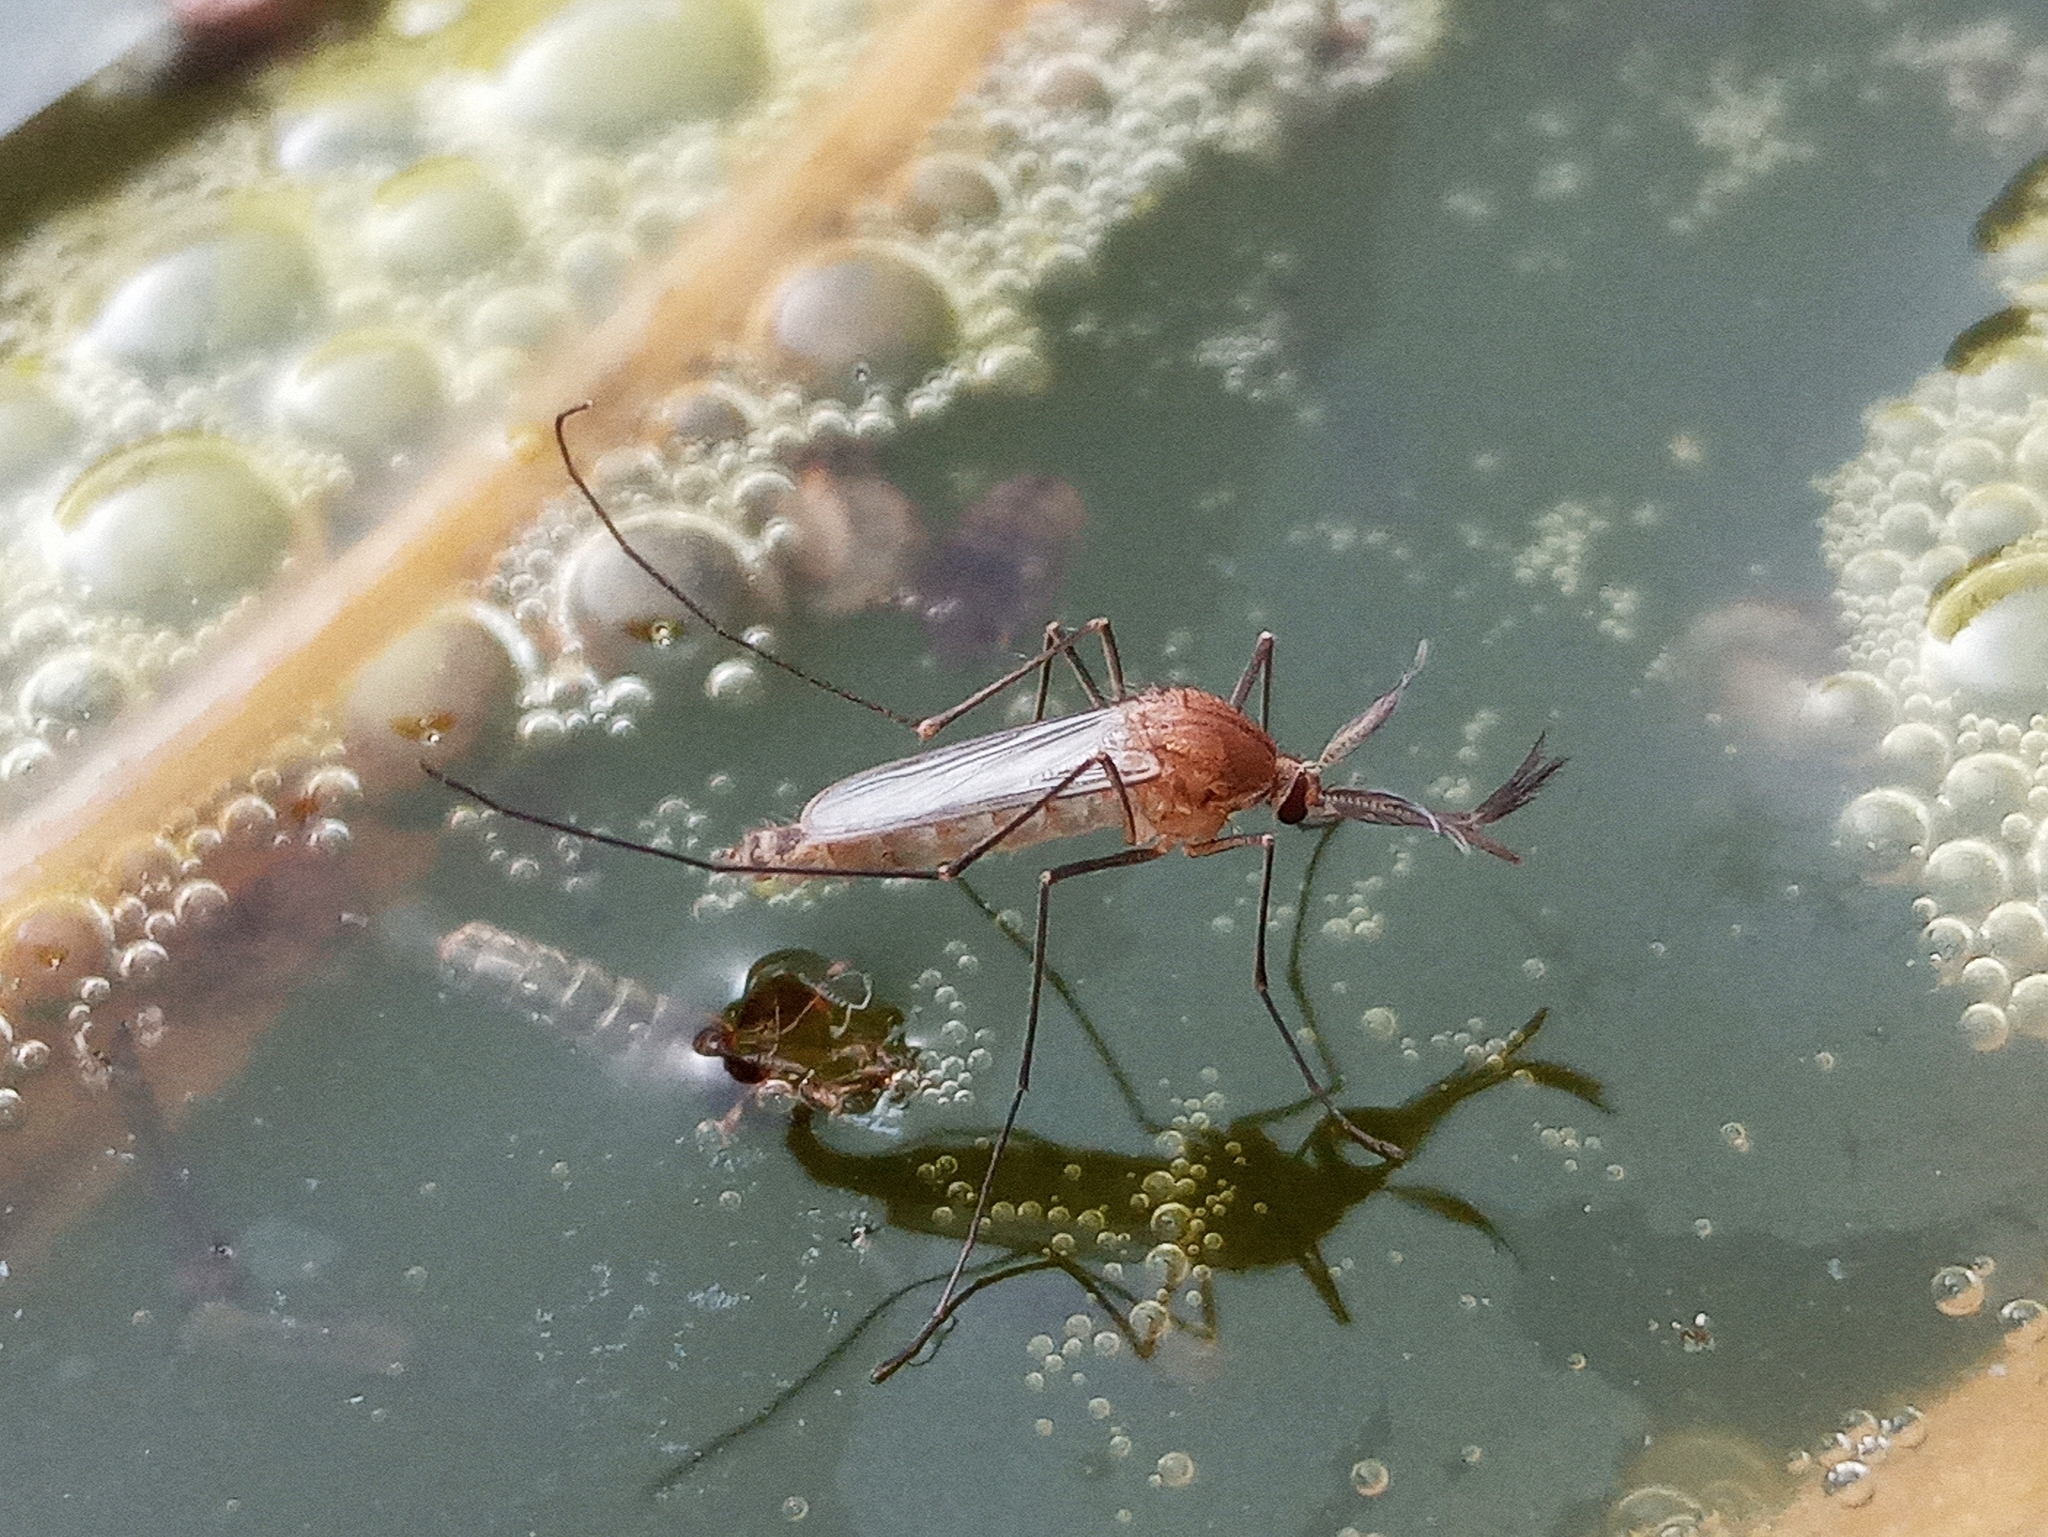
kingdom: Animalia
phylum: Arthropoda
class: Insecta
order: Diptera
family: Culicidae
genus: Culex
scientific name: Culex
